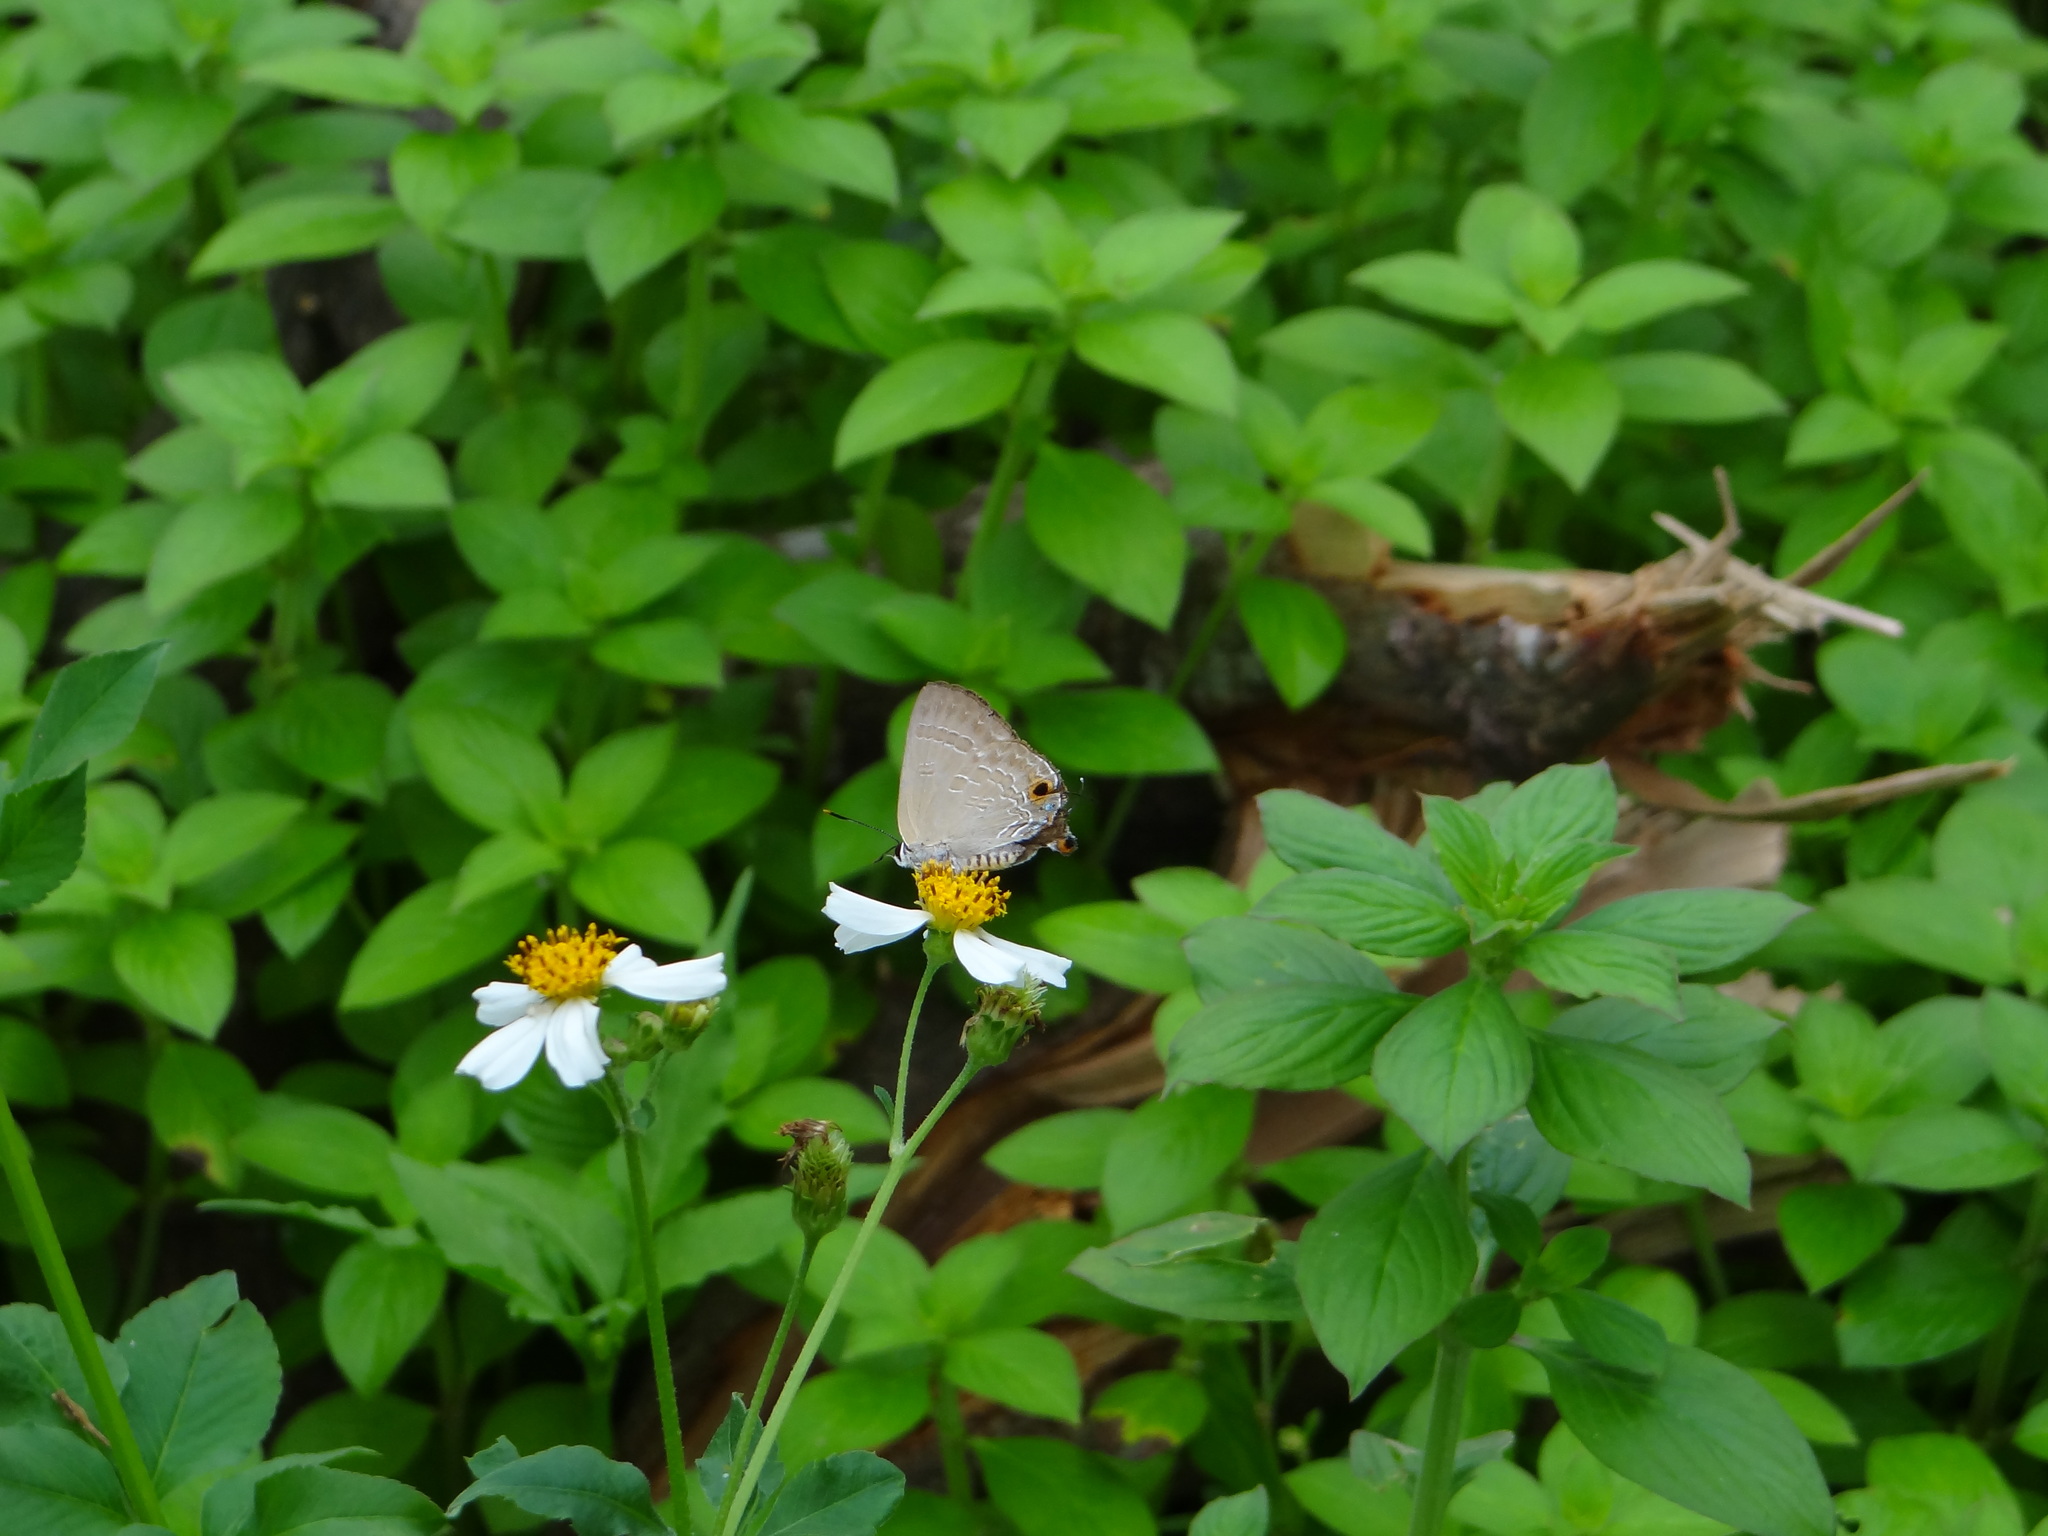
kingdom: Animalia
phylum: Arthropoda
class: Insecta
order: Lepidoptera
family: Lycaenidae
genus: Deudorix
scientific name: Deudorix epijarbas
